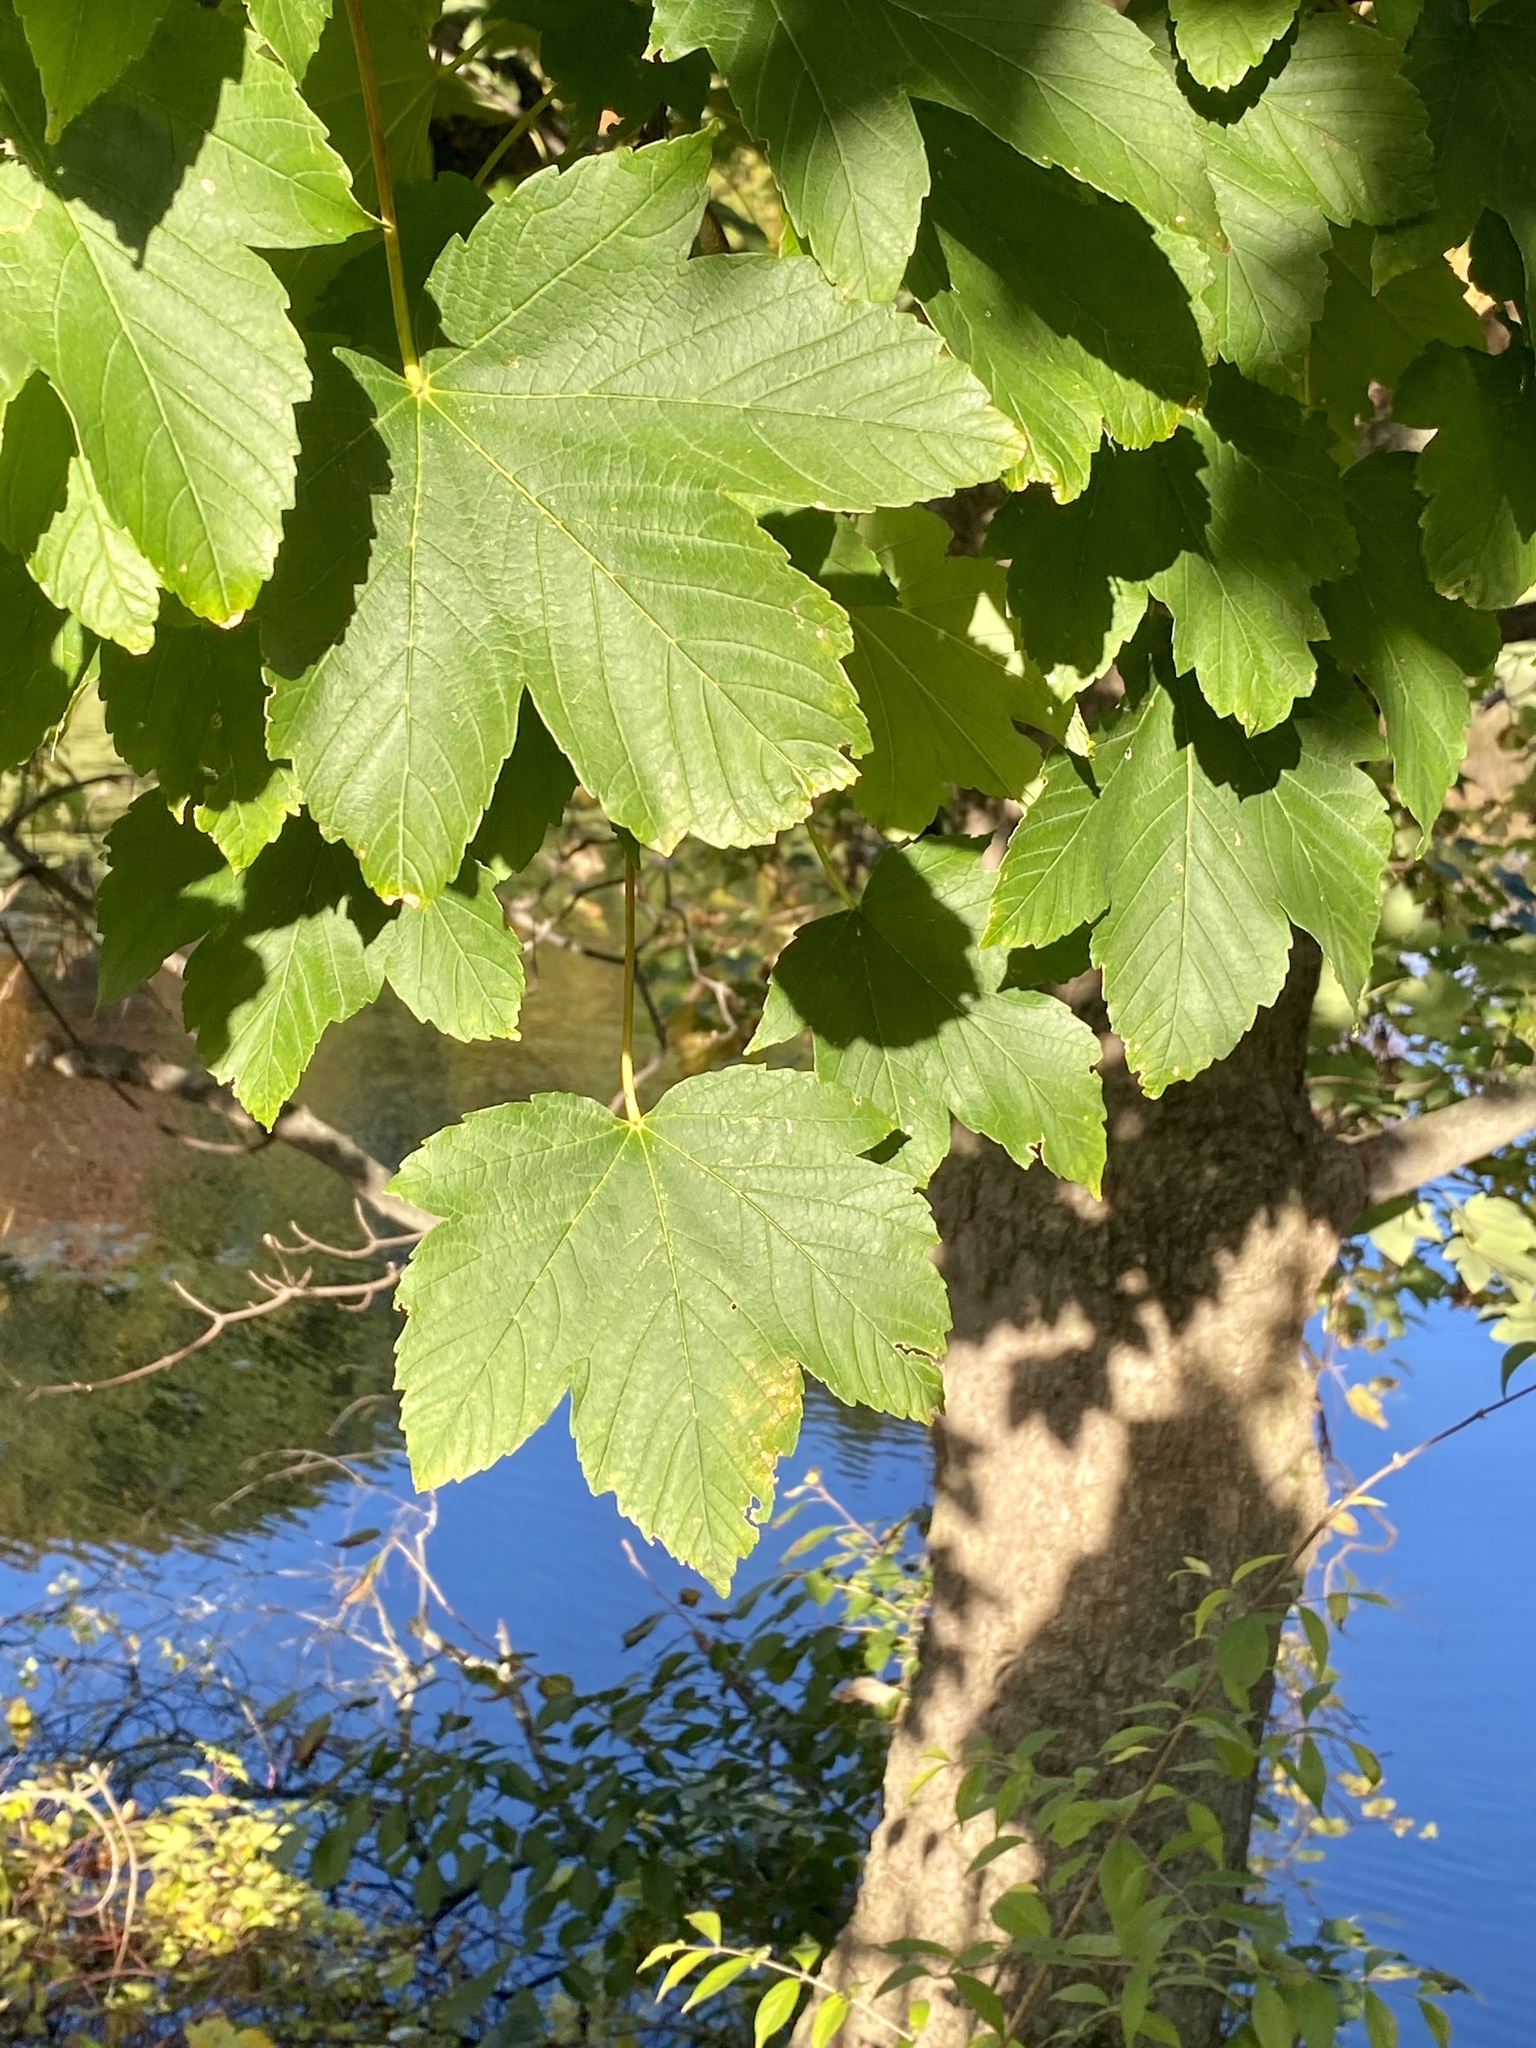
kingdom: Plantae
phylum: Tracheophyta
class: Magnoliopsida
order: Sapindales
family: Sapindaceae
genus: Acer
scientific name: Acer pseudoplatanus
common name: Sycamore
